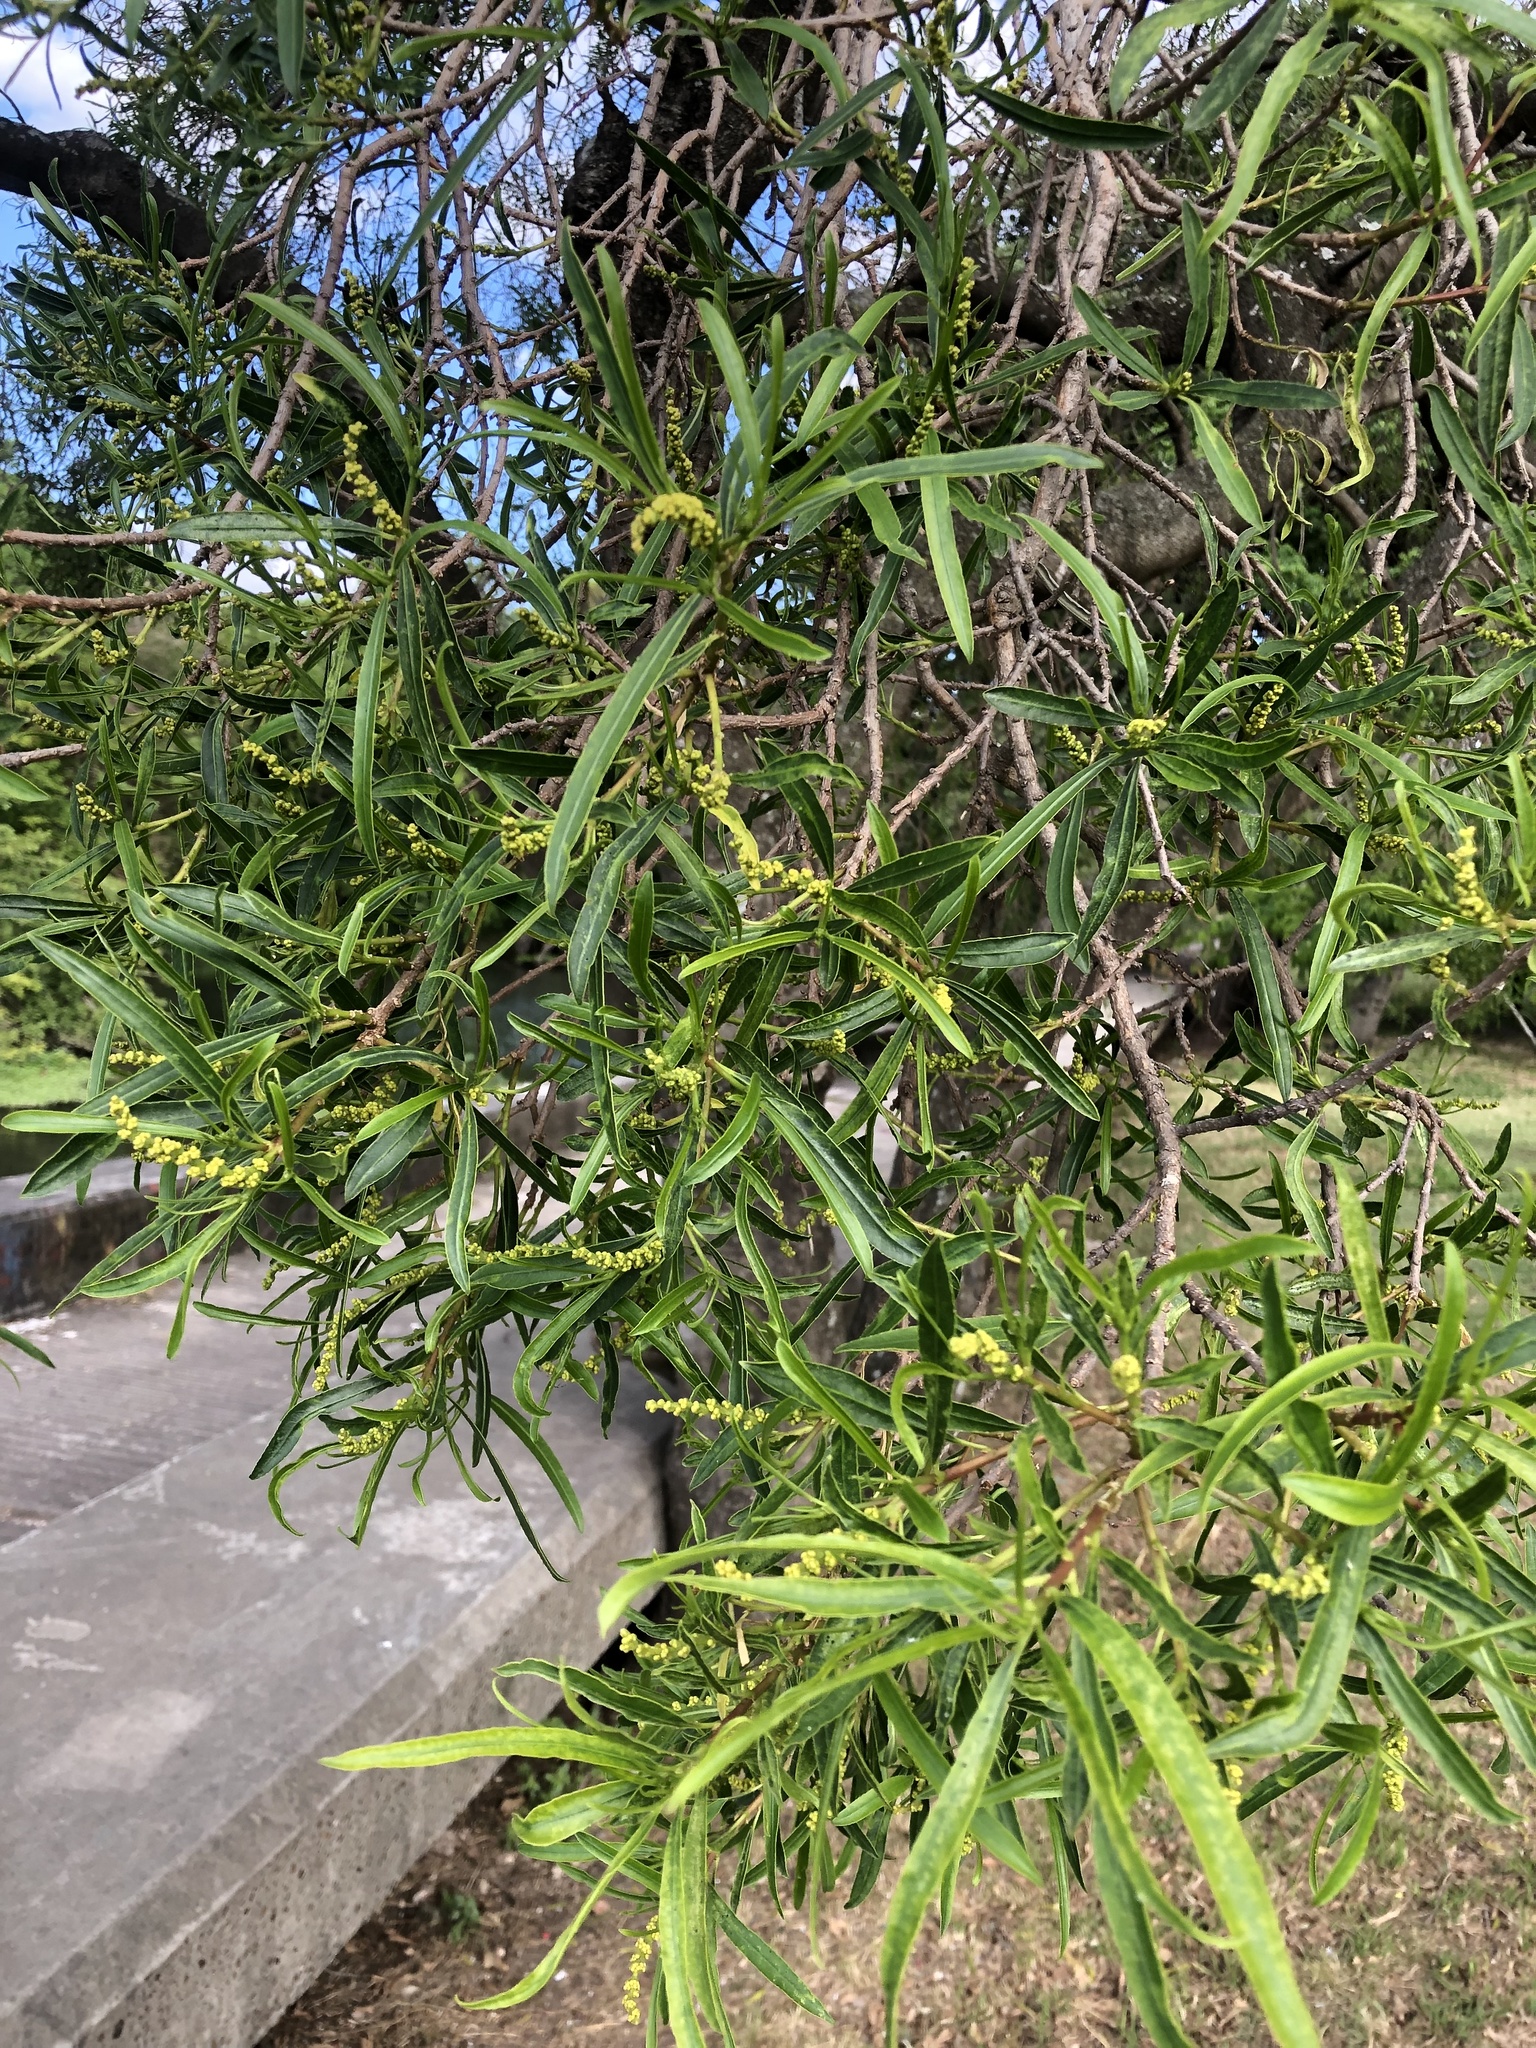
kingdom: Plantae
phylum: Tracheophyta
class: Magnoliopsida
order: Malpighiales
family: Euphorbiaceae
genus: Sapium
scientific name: Sapium haematospermum
